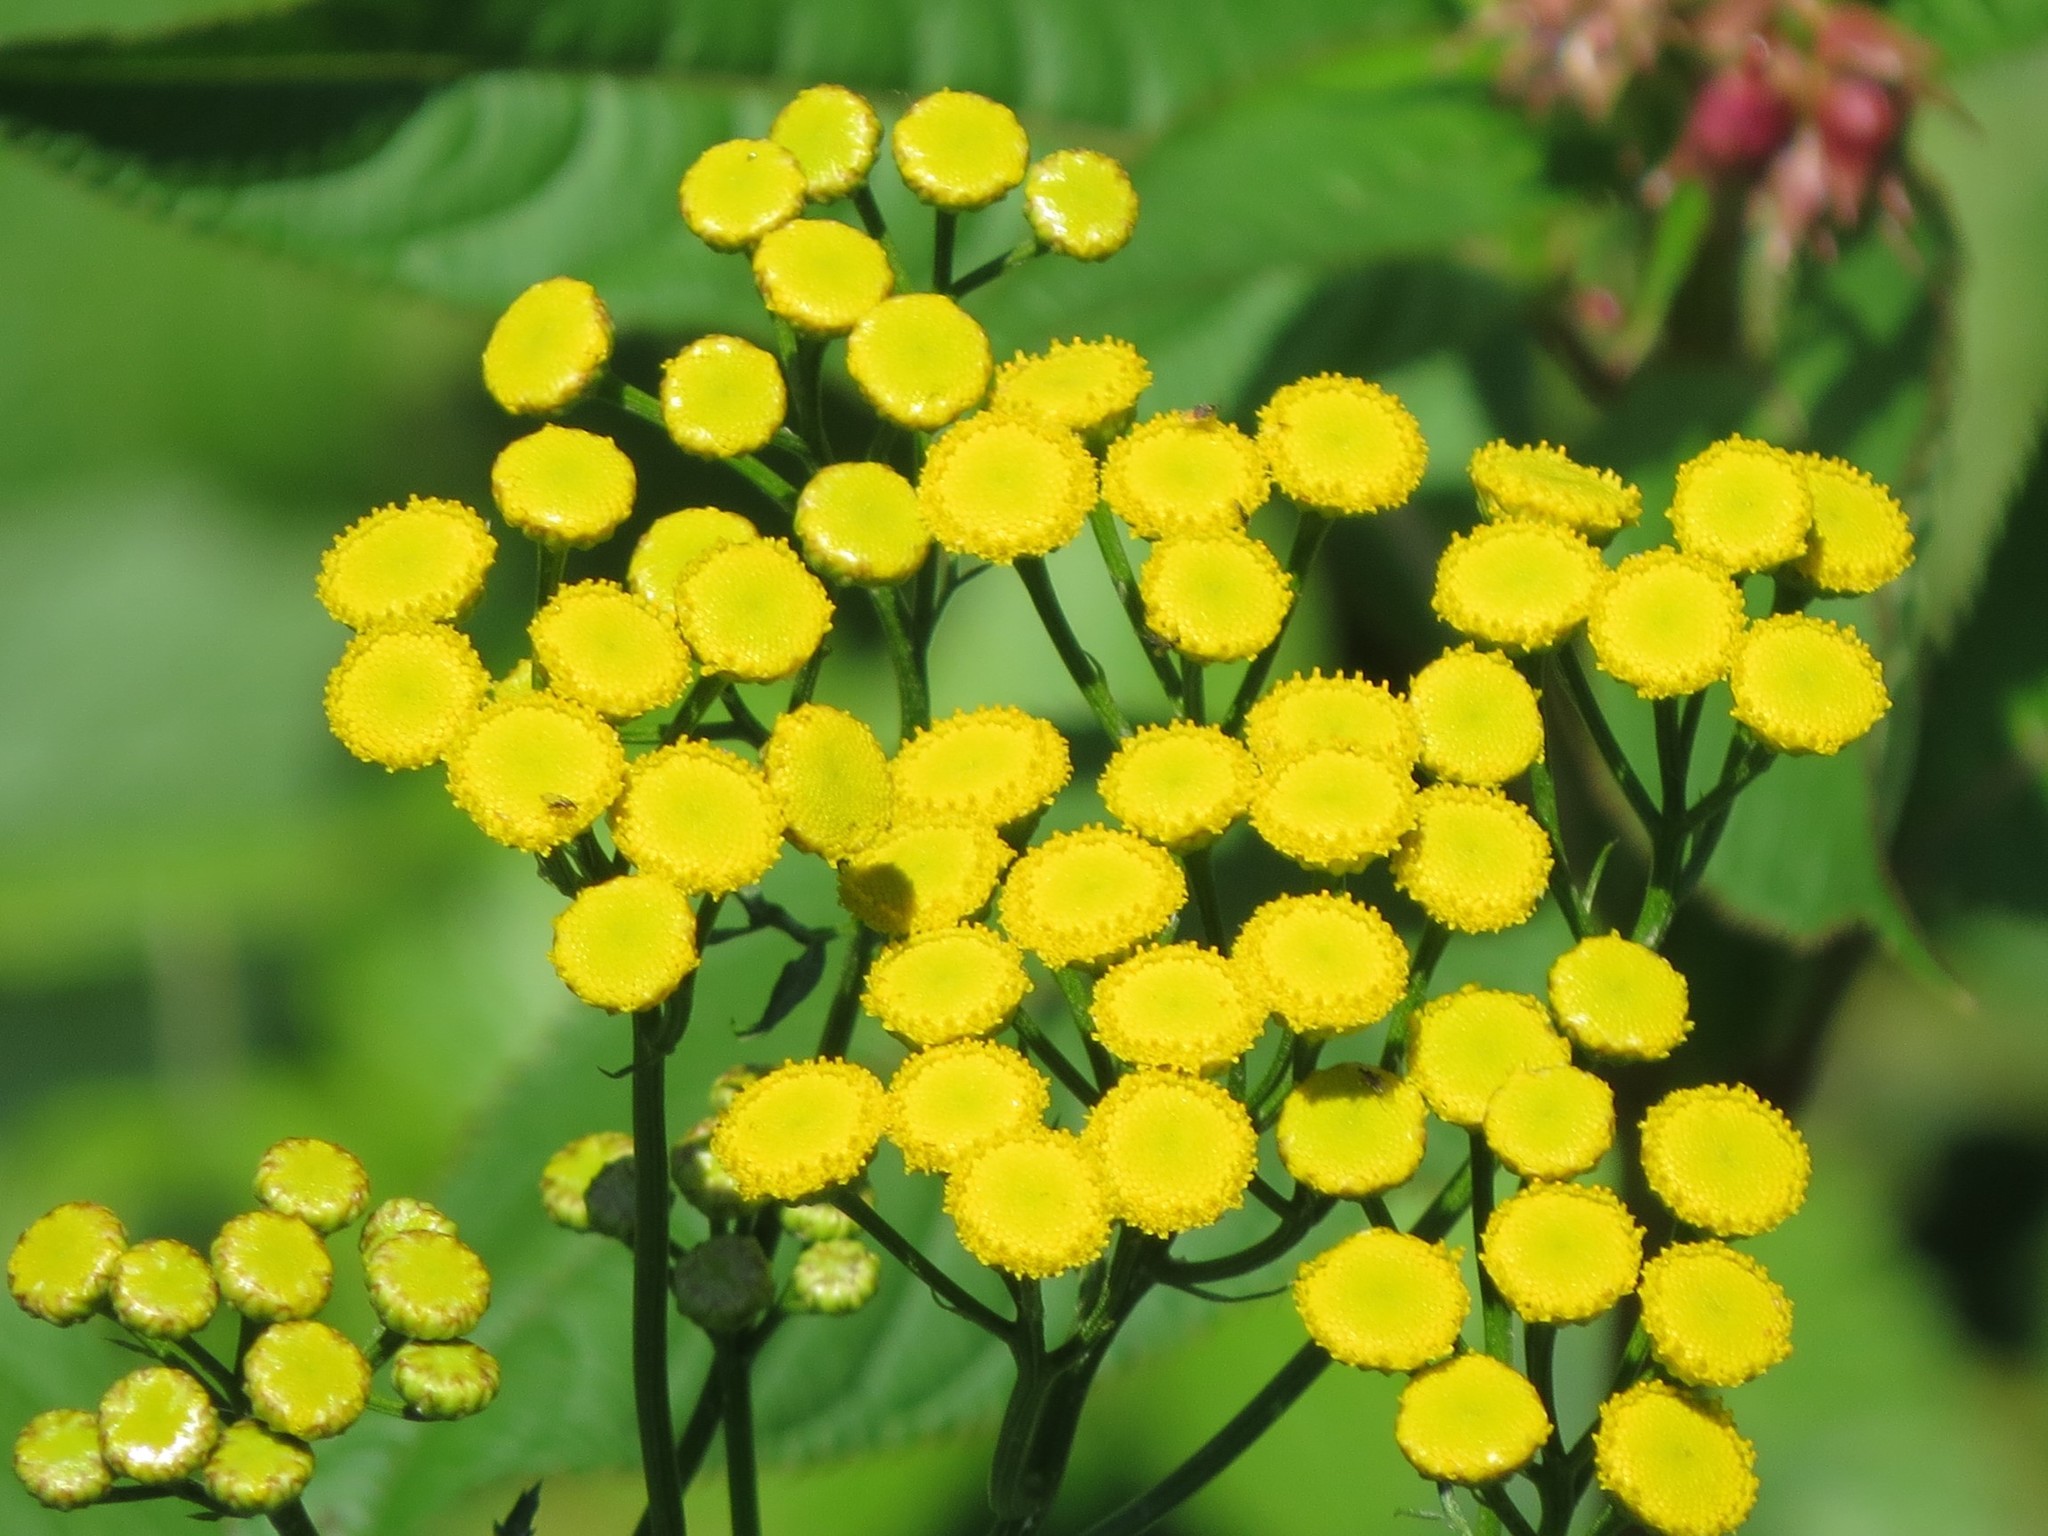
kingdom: Plantae
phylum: Tracheophyta
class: Magnoliopsida
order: Asterales
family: Asteraceae
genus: Tanacetum
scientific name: Tanacetum vulgare
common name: Common tansy
